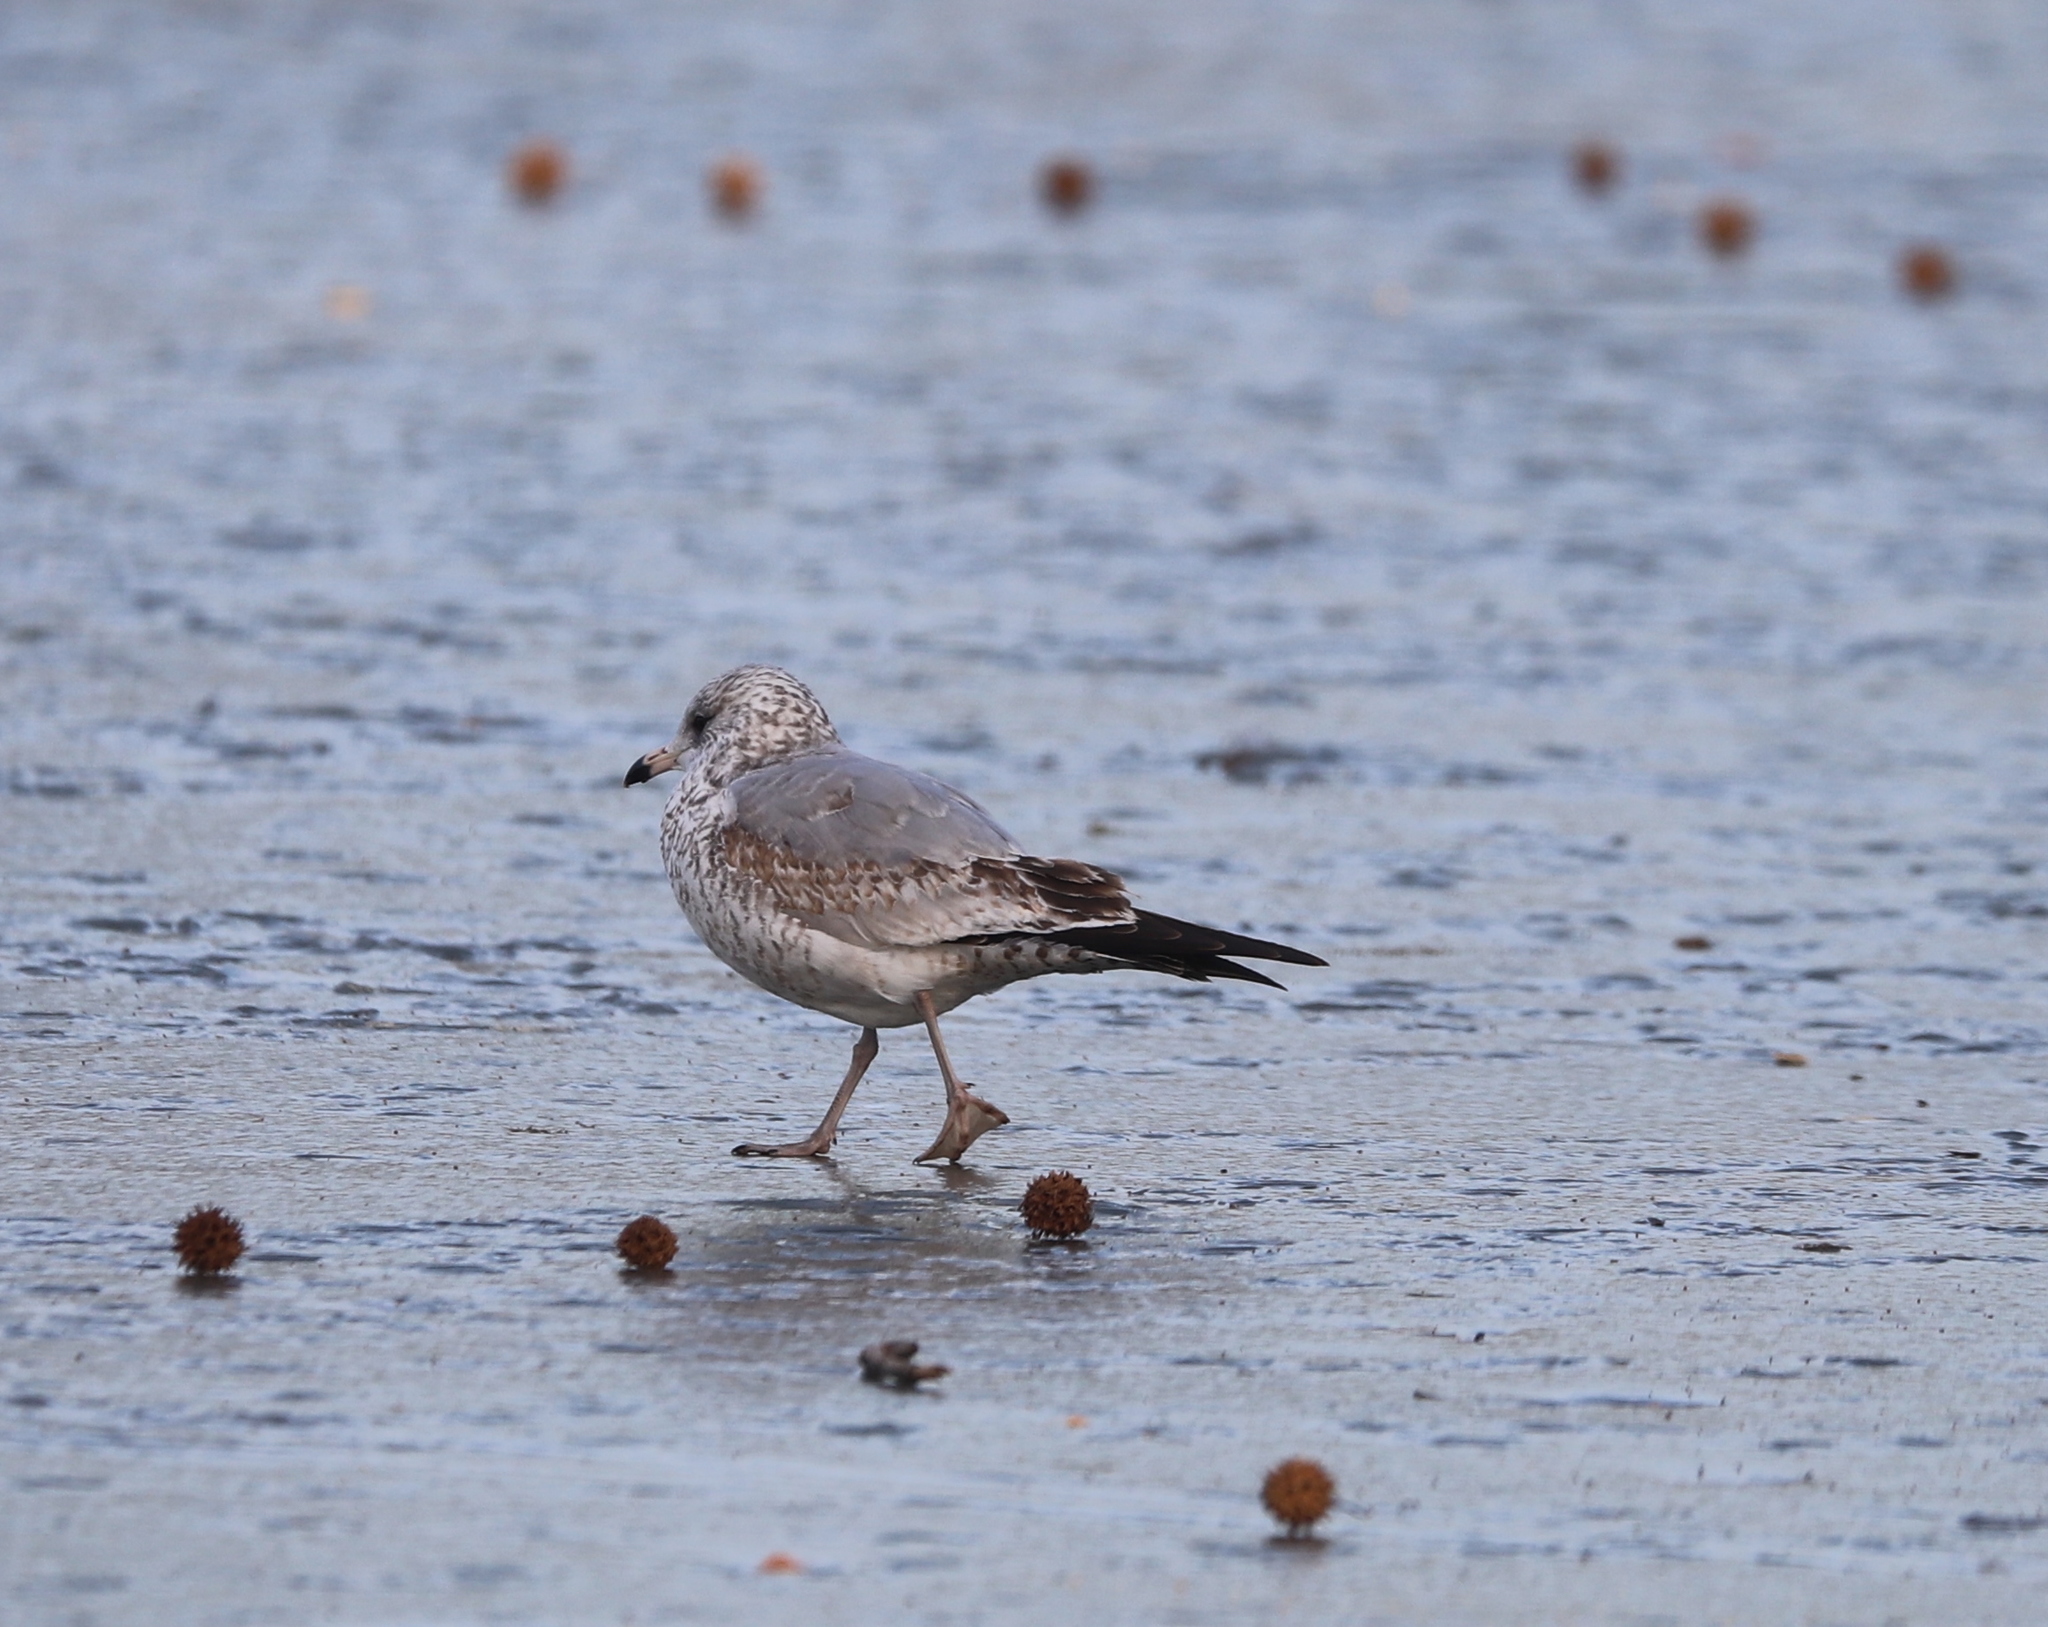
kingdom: Animalia
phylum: Chordata
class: Aves
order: Charadriiformes
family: Laridae
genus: Larus
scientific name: Larus delawarensis
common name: Ring-billed gull
